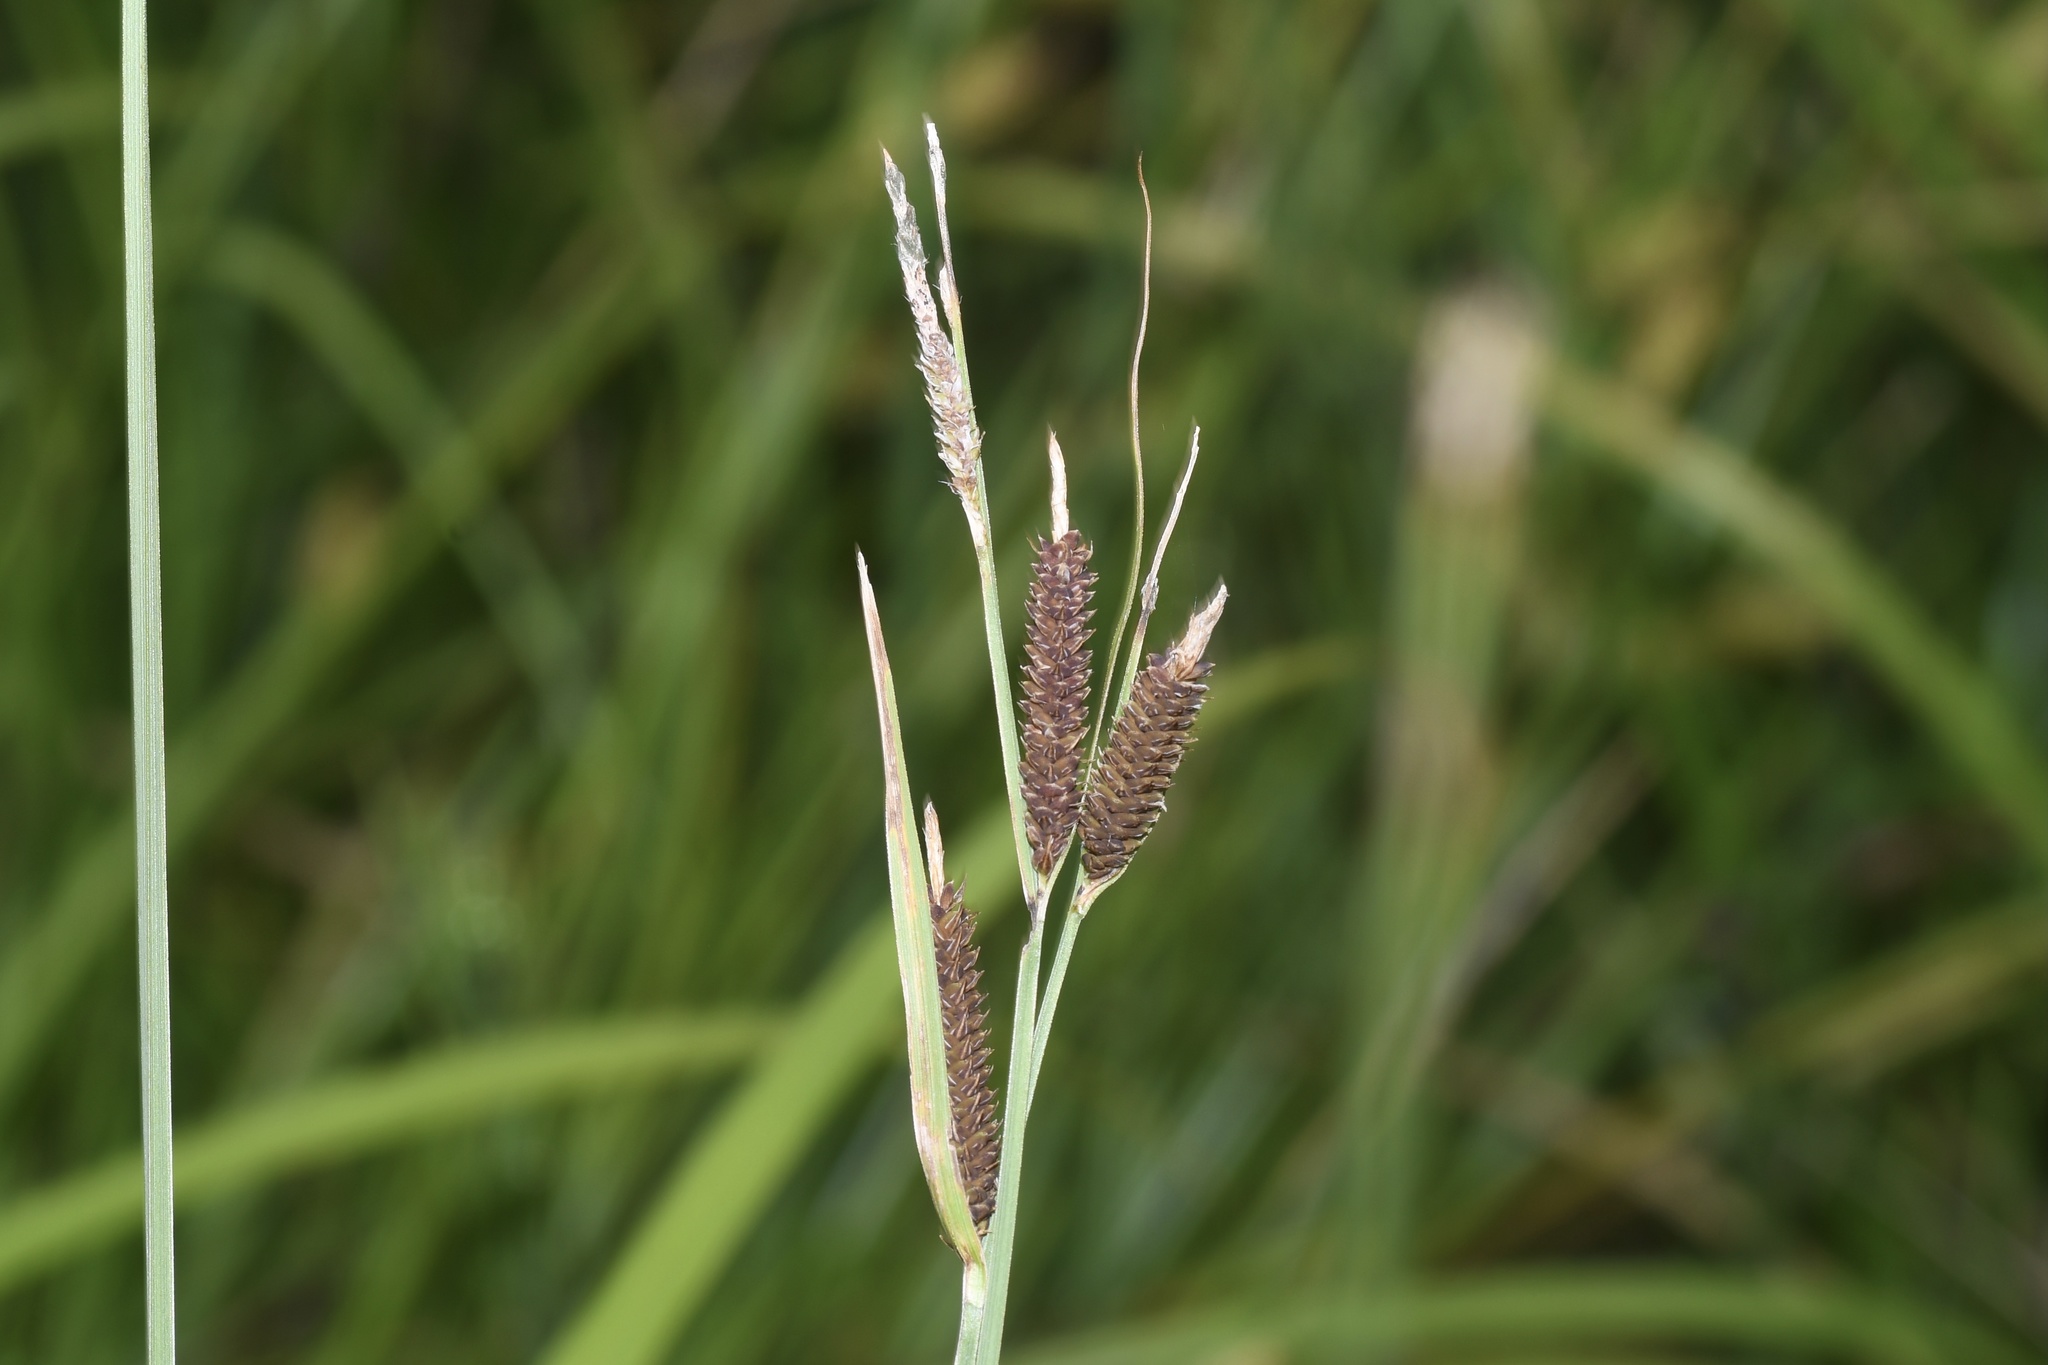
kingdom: Plantae
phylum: Tracheophyta
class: Liliopsida
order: Poales
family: Cyperaceae
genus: Carex
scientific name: Carex haydenii
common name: Hayden's sedge
